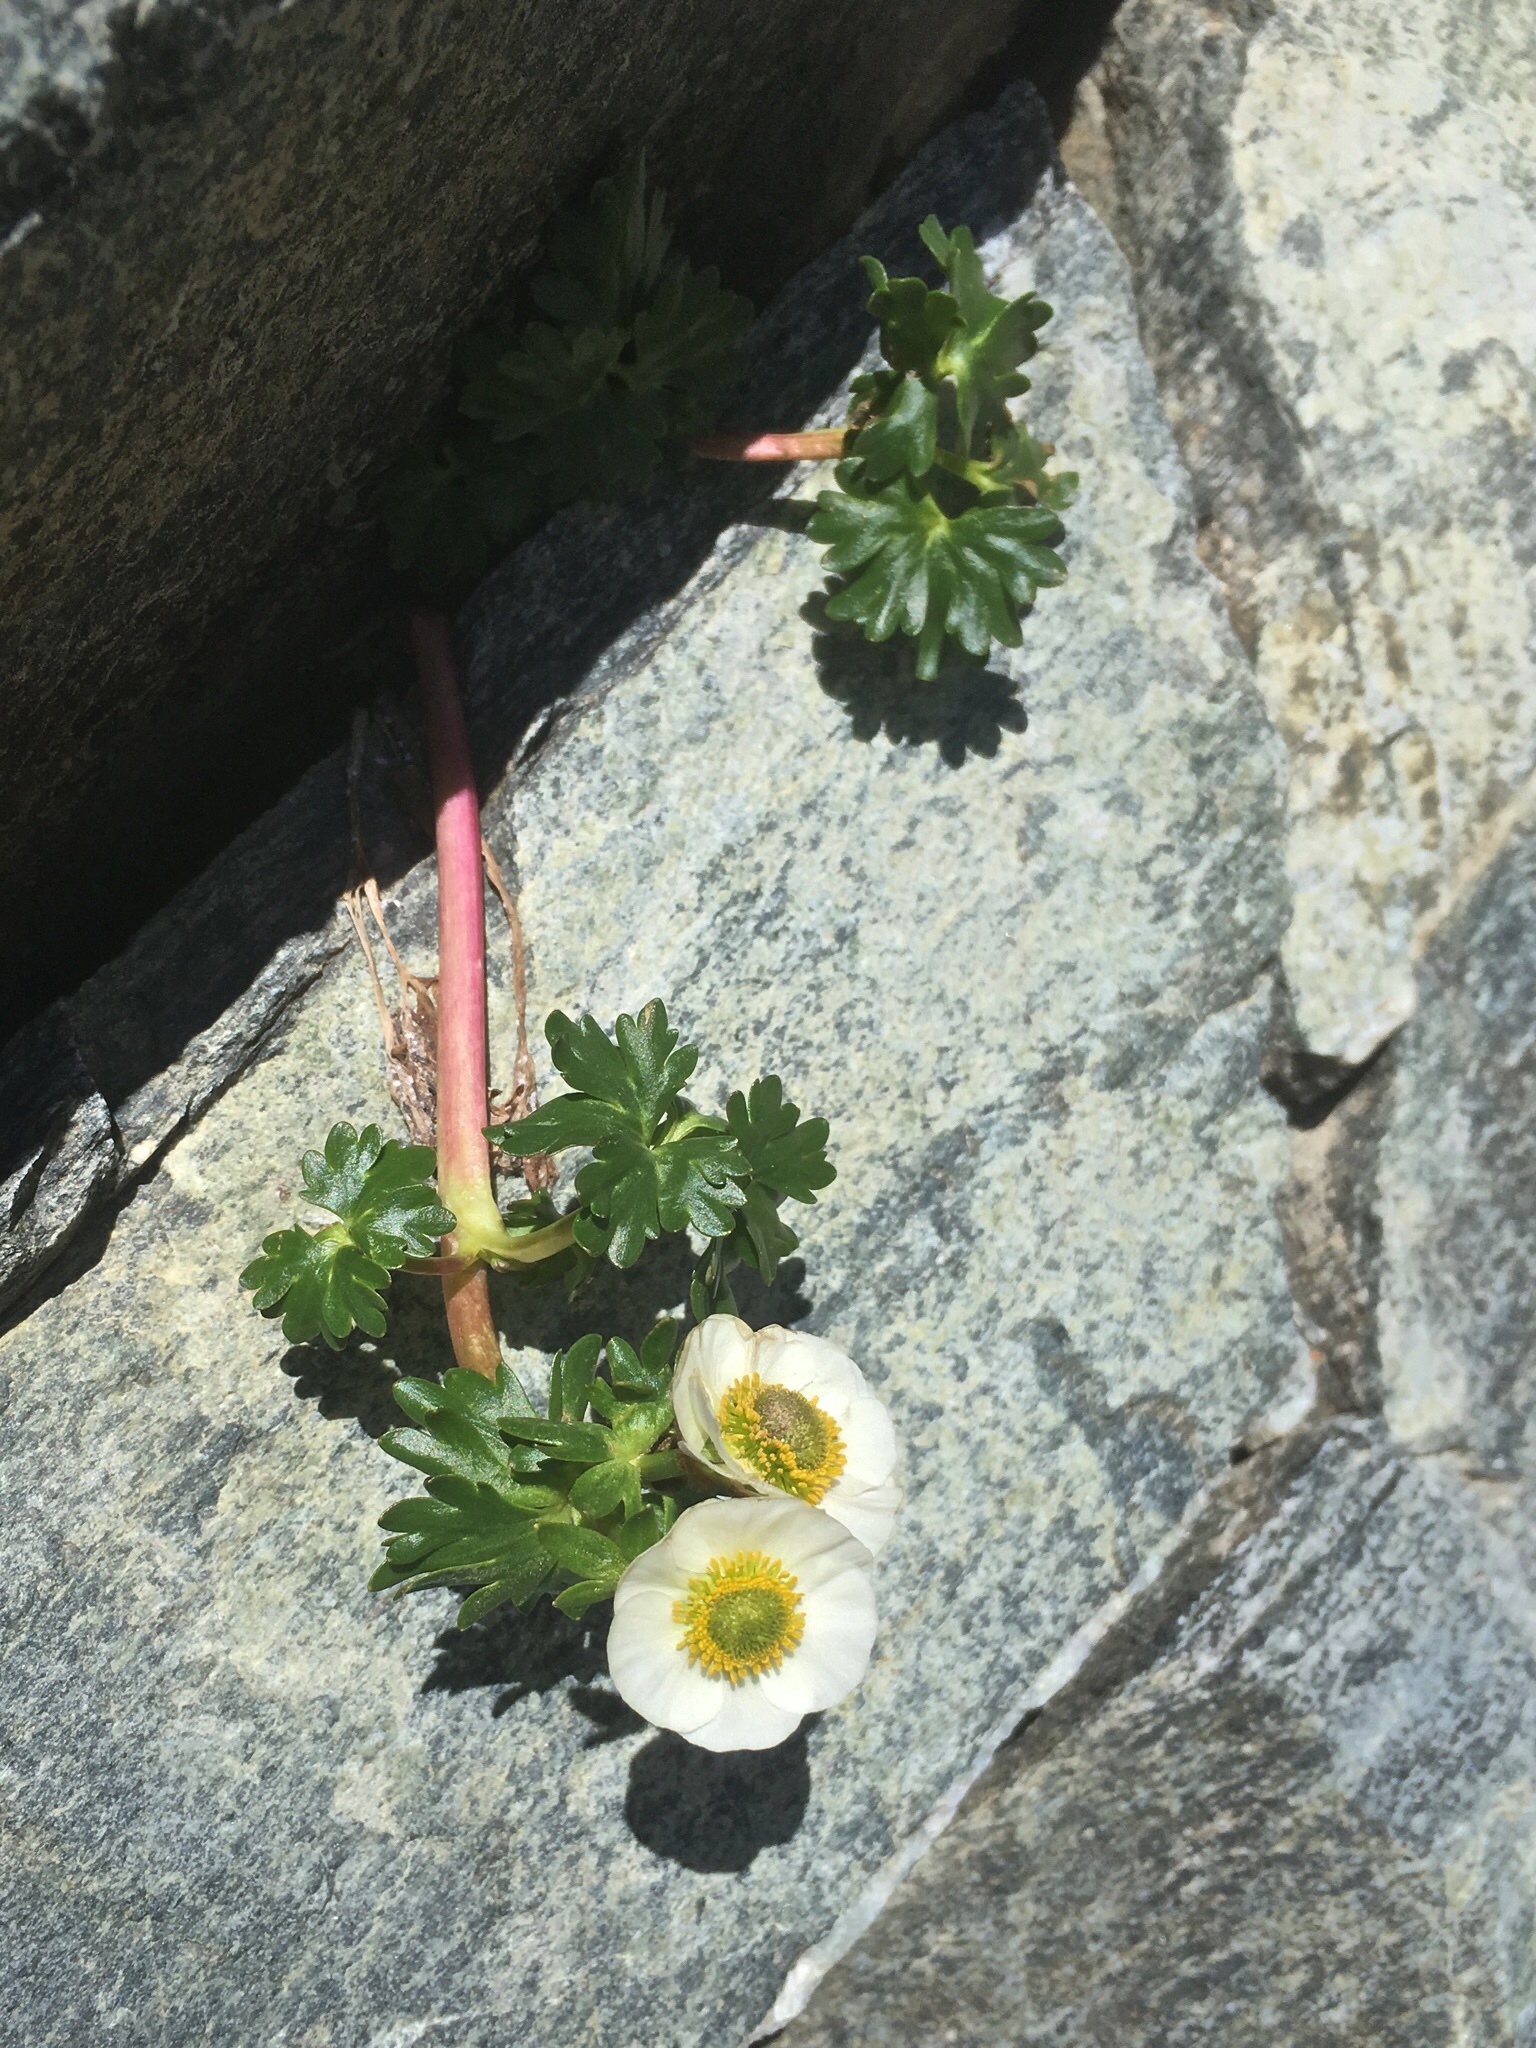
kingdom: Plantae
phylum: Tracheophyta
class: Magnoliopsida
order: Ranunculales
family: Ranunculaceae
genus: Ranunculus
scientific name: Ranunculus glacialis
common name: Glacier buttercup
